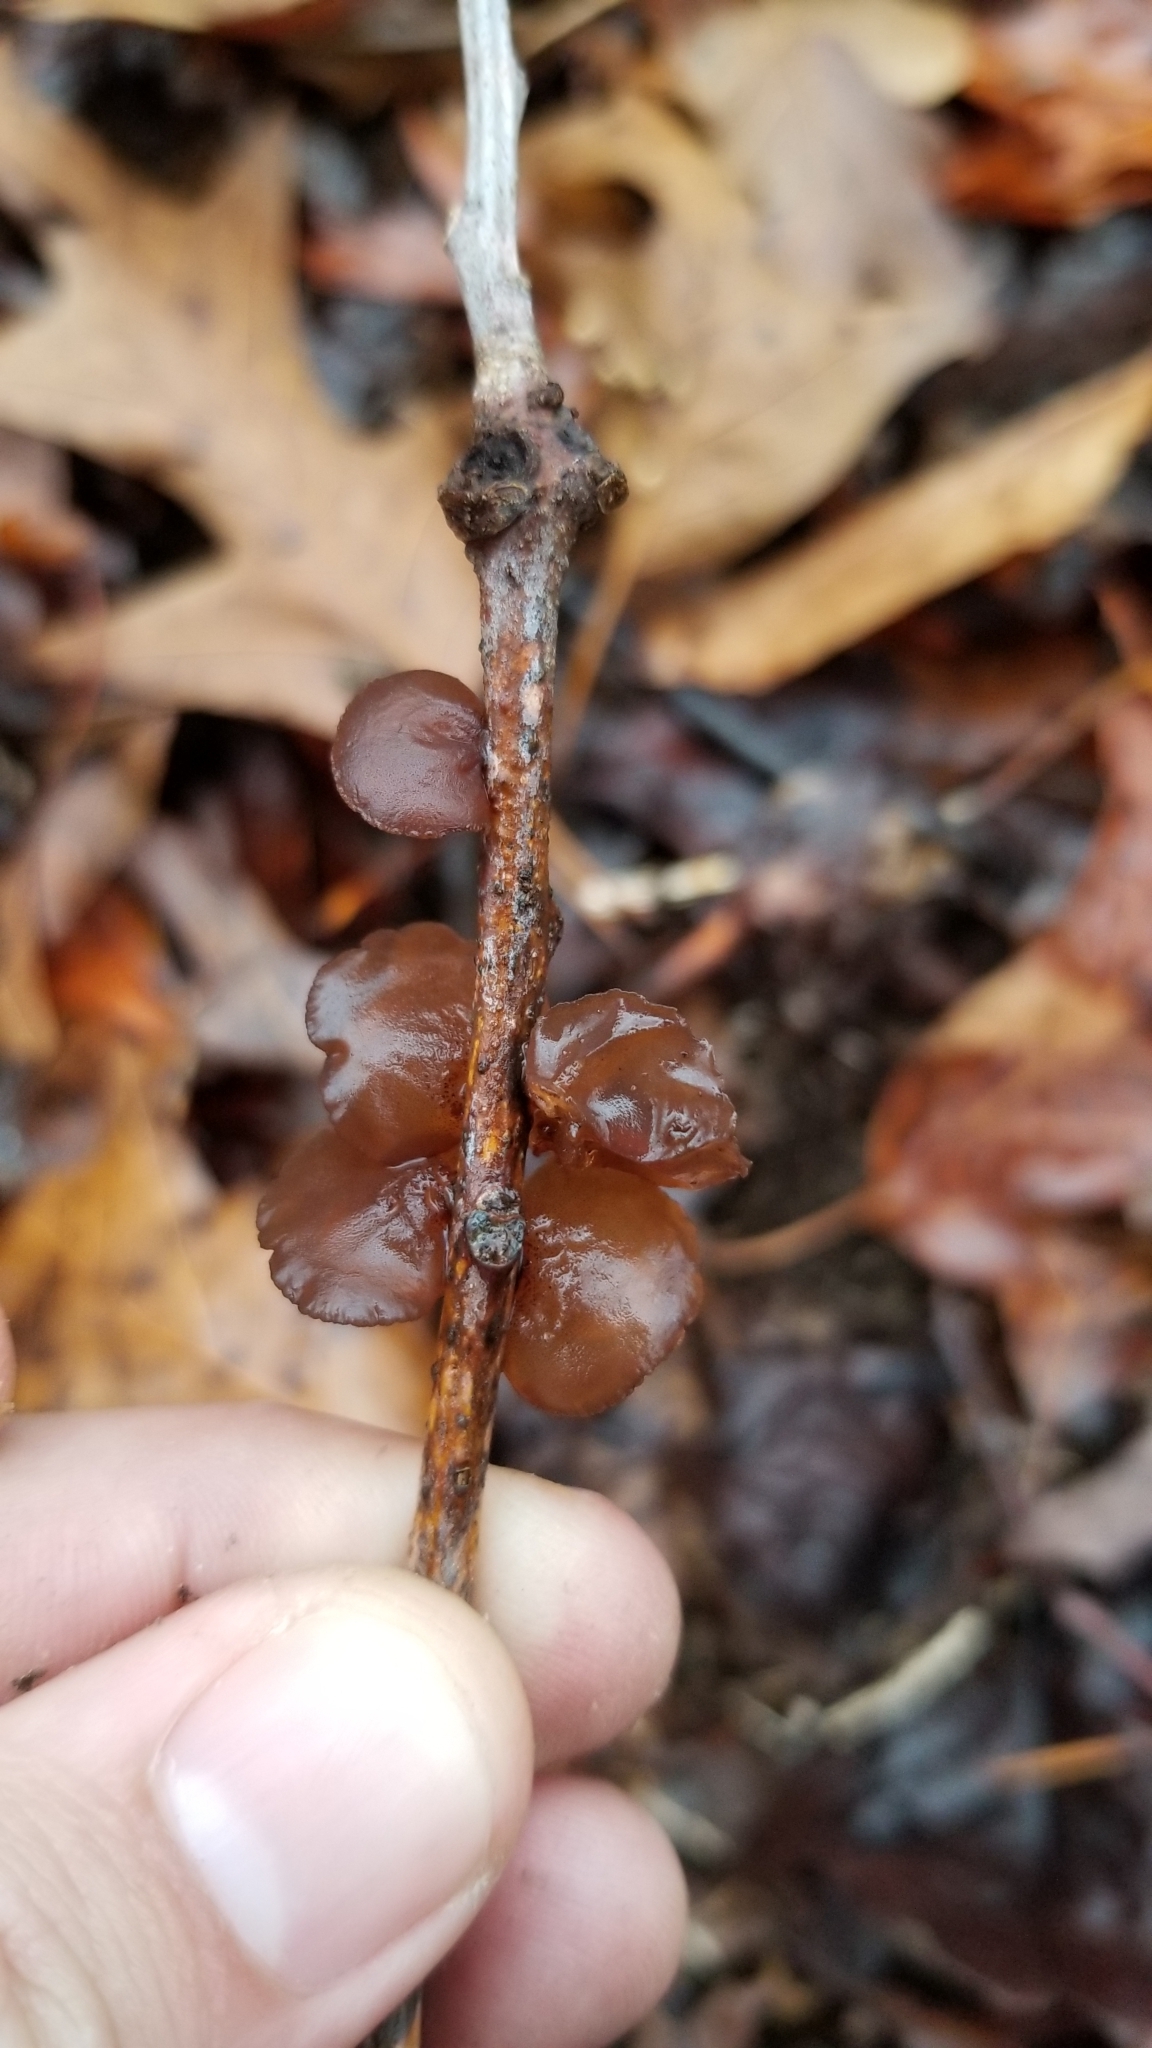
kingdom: Fungi
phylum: Basidiomycota
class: Agaricomycetes
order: Auriculariales
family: Auriculariaceae
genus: Exidia
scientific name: Exidia recisa
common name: Amber jelly
